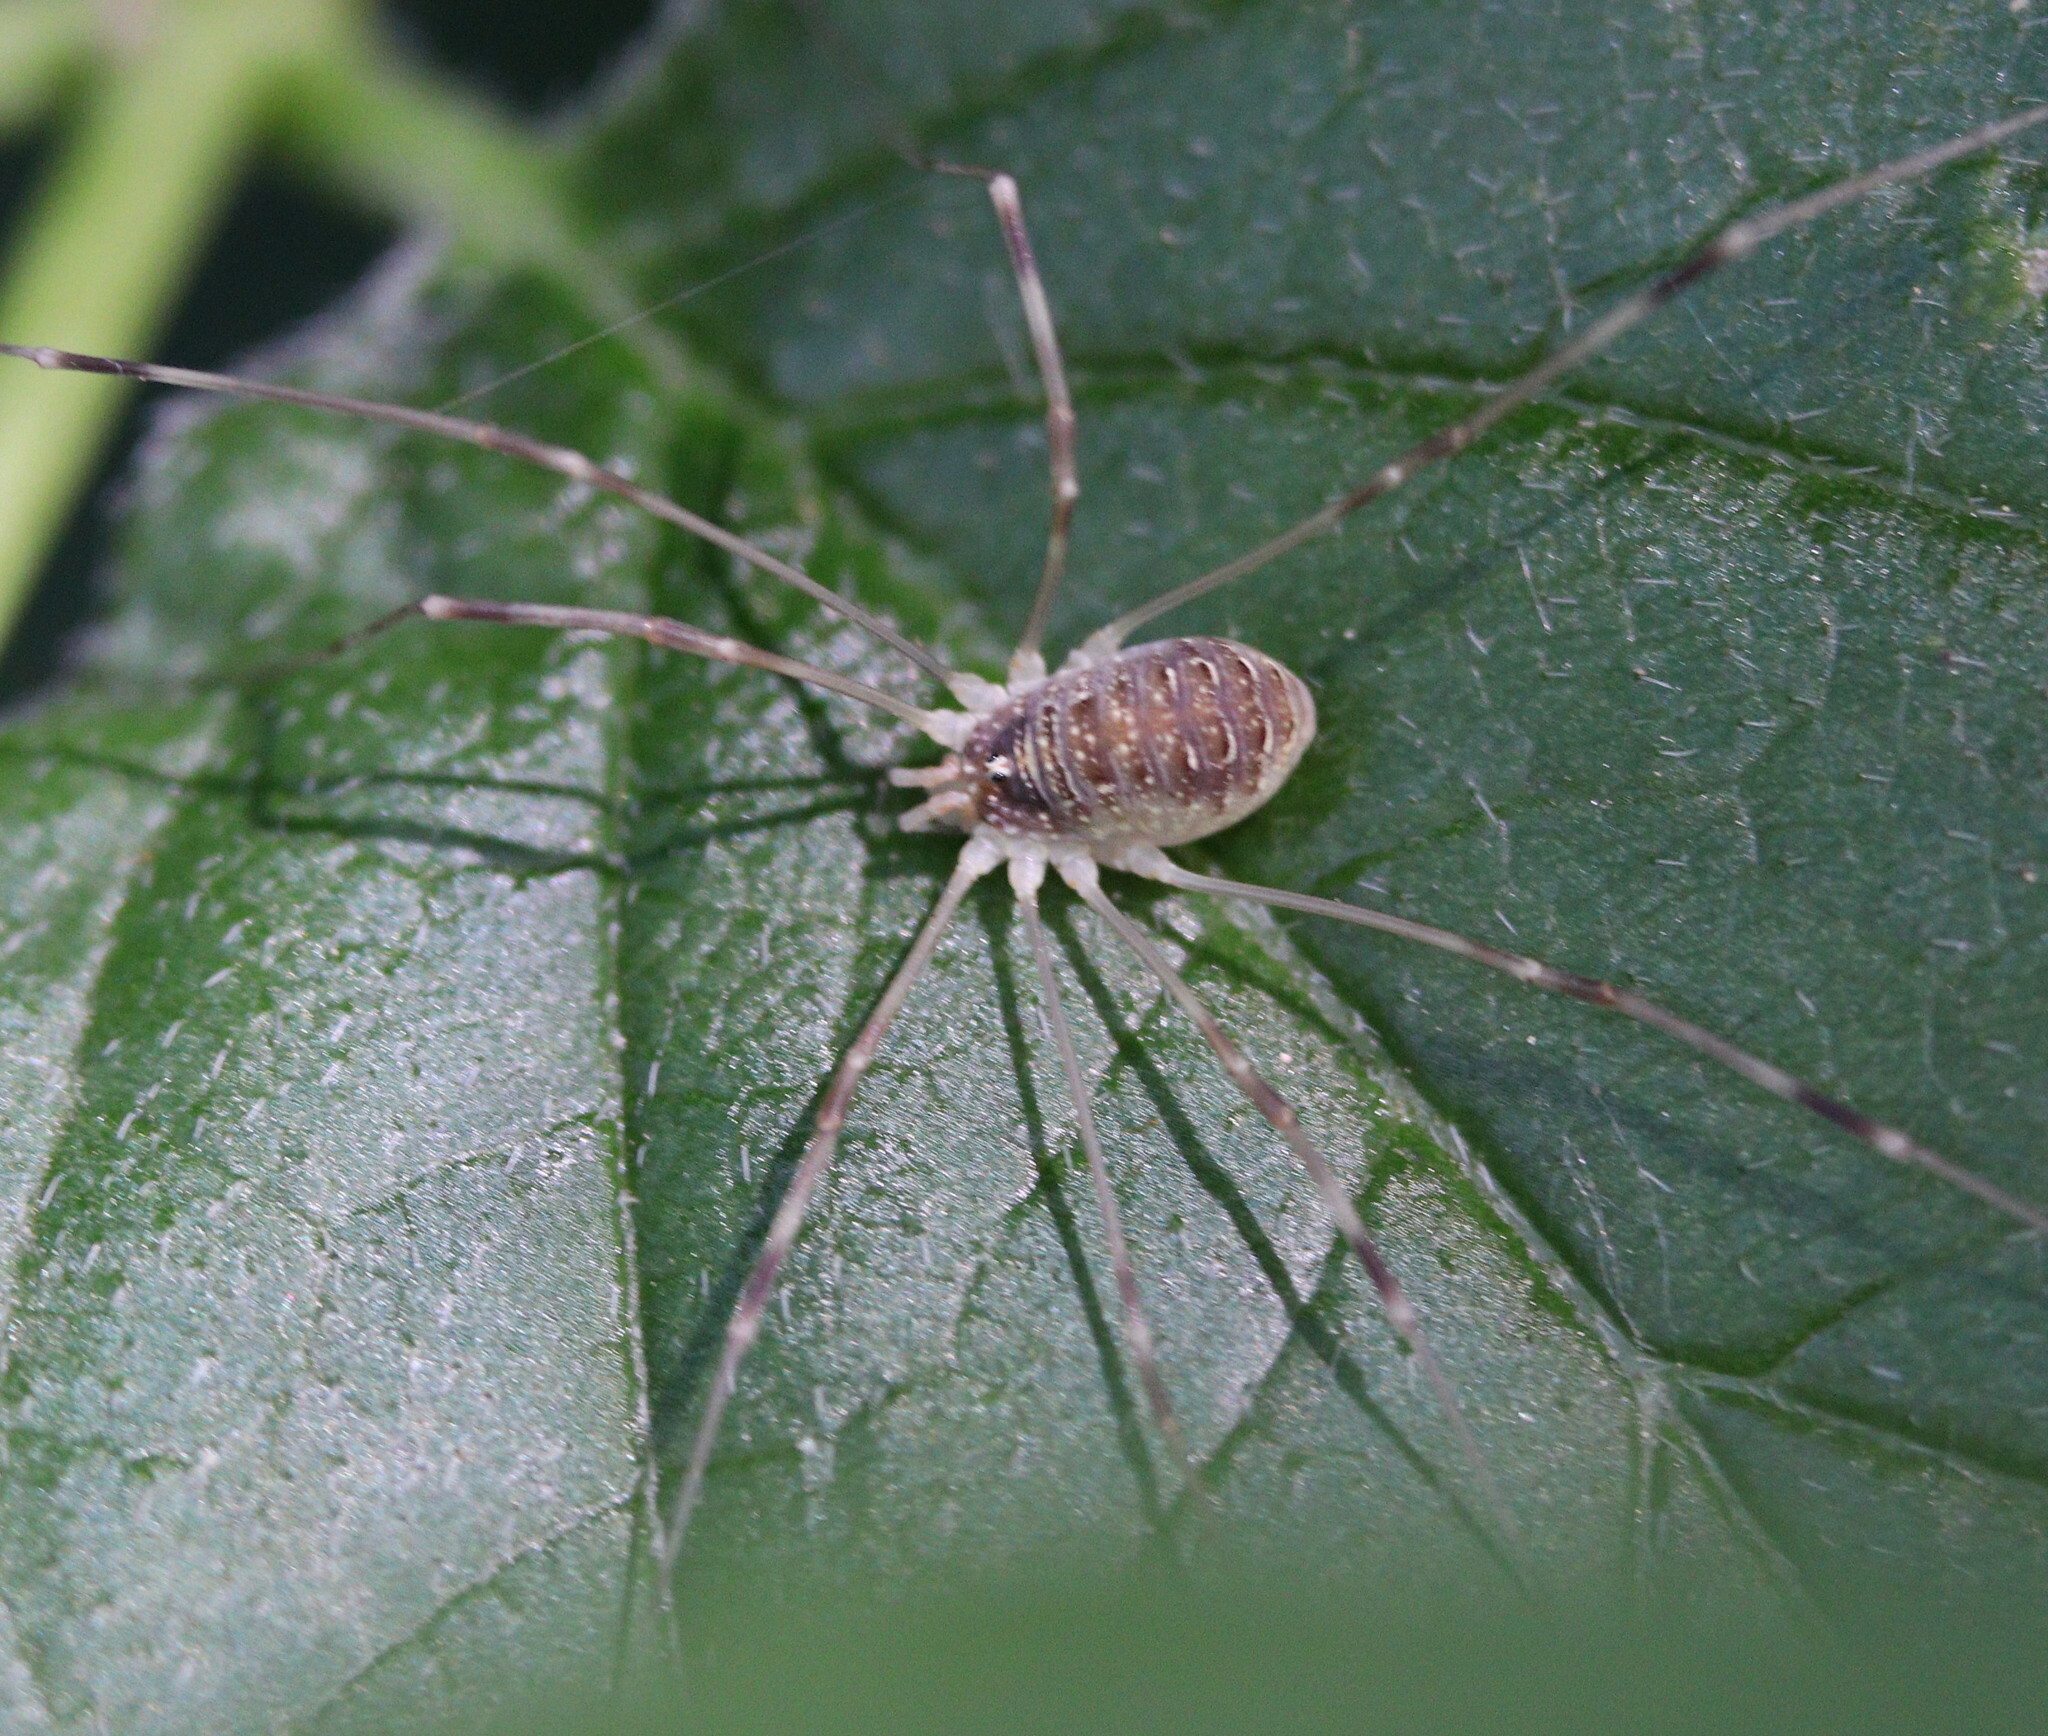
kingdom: Animalia
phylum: Arthropoda
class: Arachnida
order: Opiliones
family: Phalangiidae
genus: Opilio
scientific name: Opilio canestrinii
